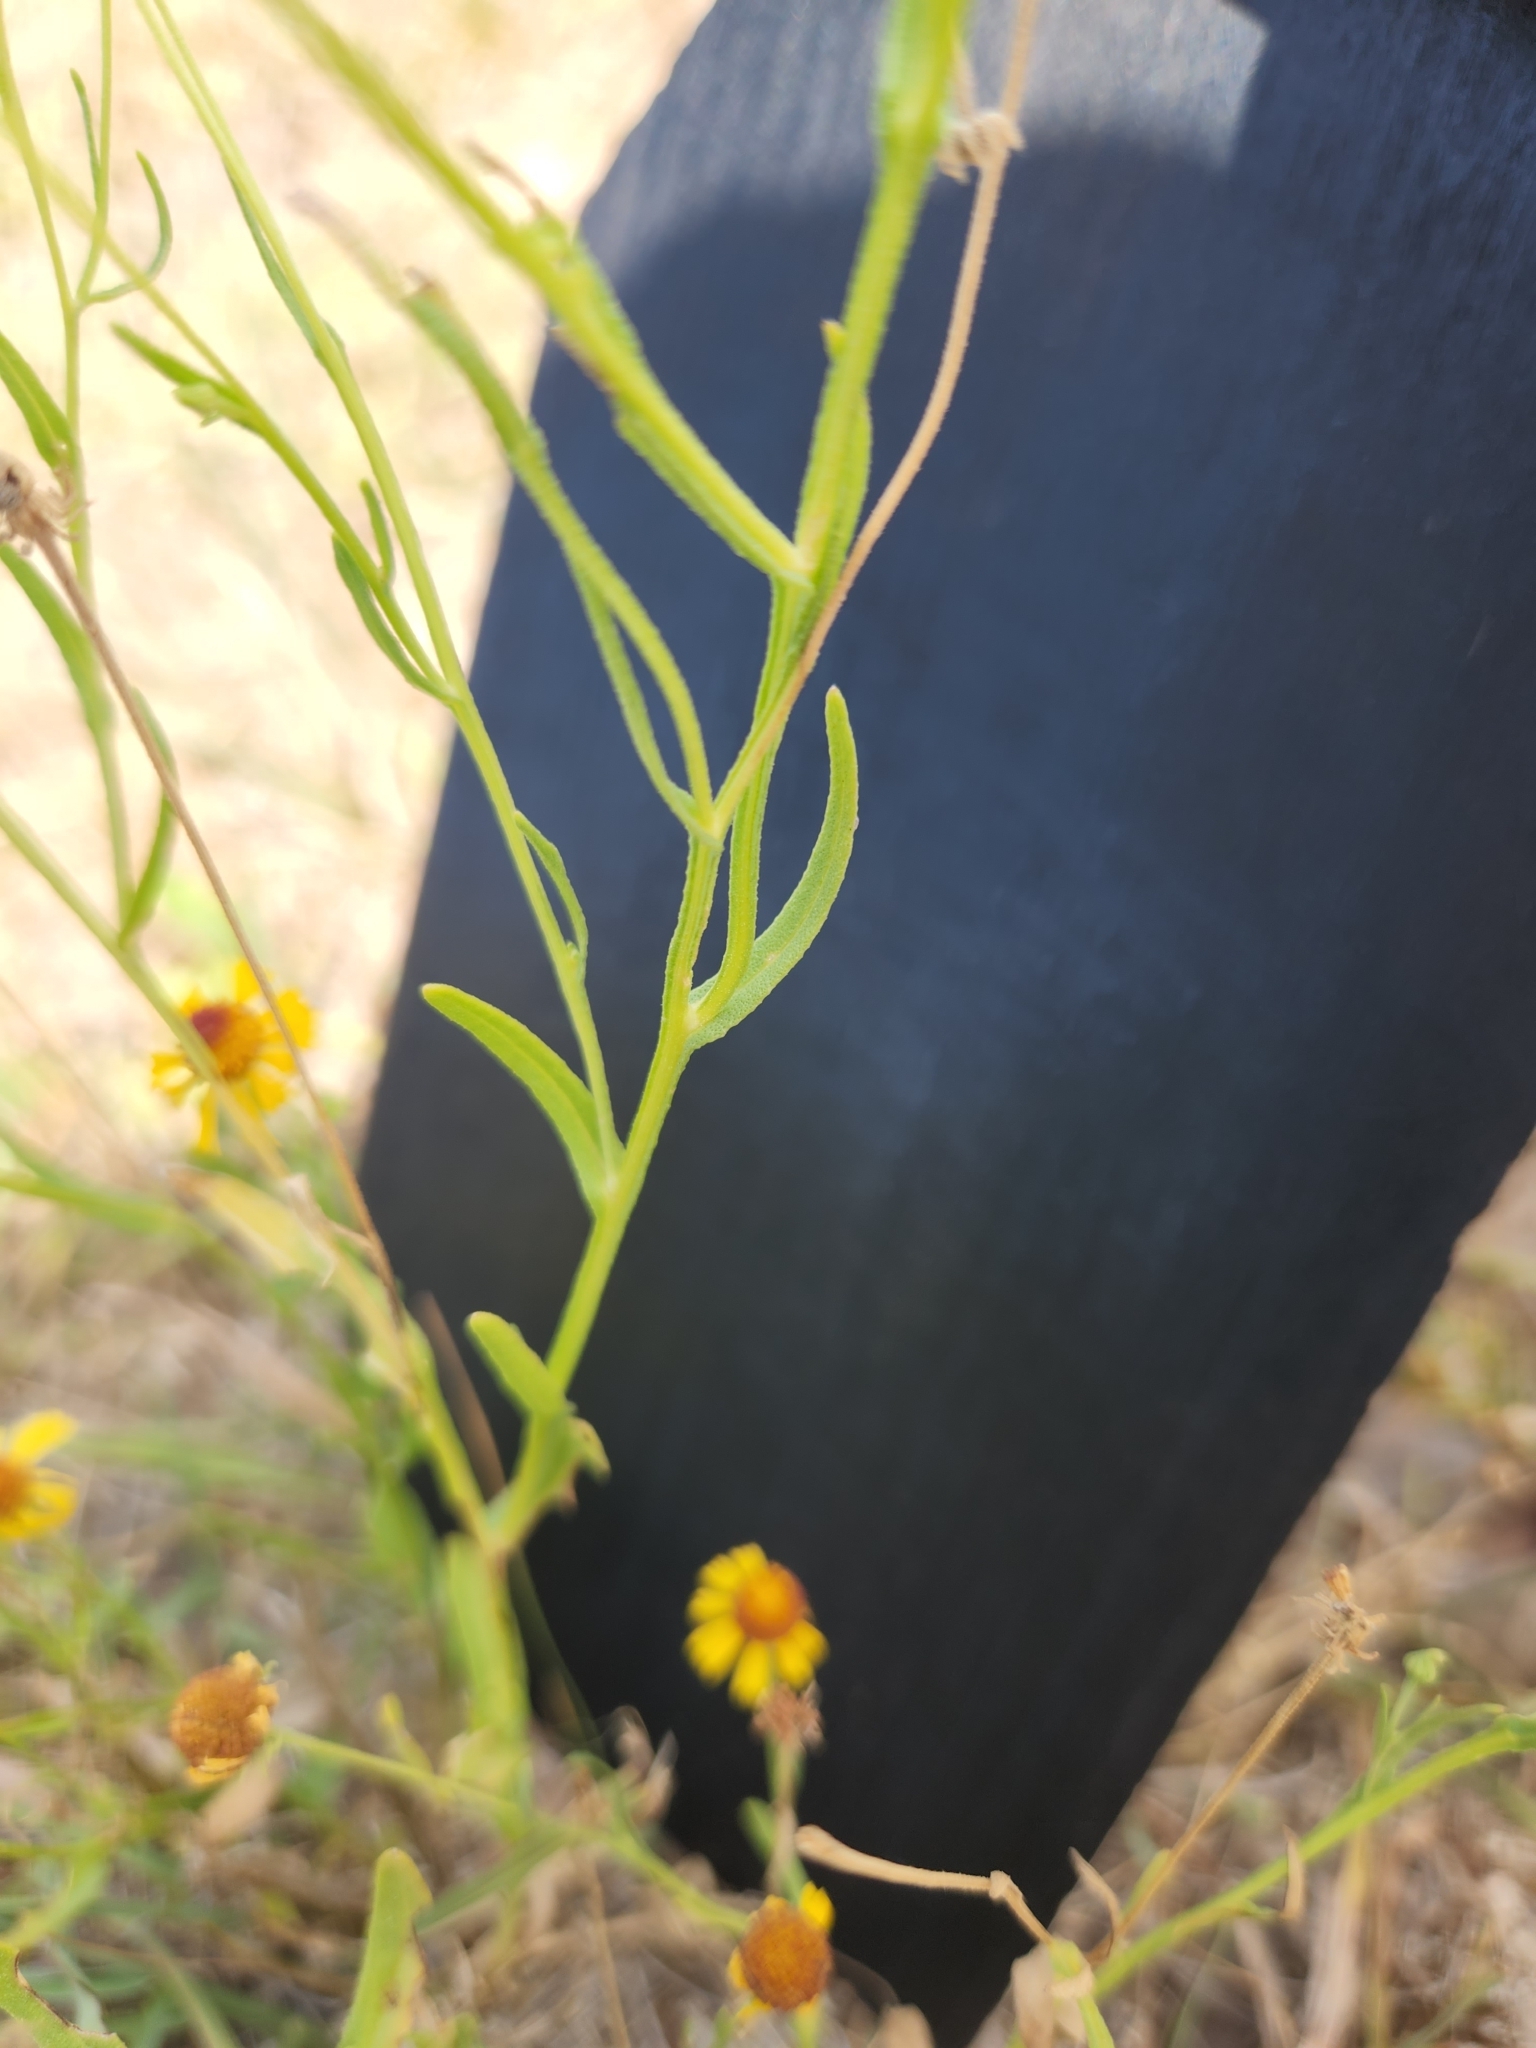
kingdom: Plantae
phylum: Tracheophyta
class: Magnoliopsida
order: Asterales
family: Asteraceae
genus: Helenium
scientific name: Helenium elegans
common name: Pretty sneezeweed
